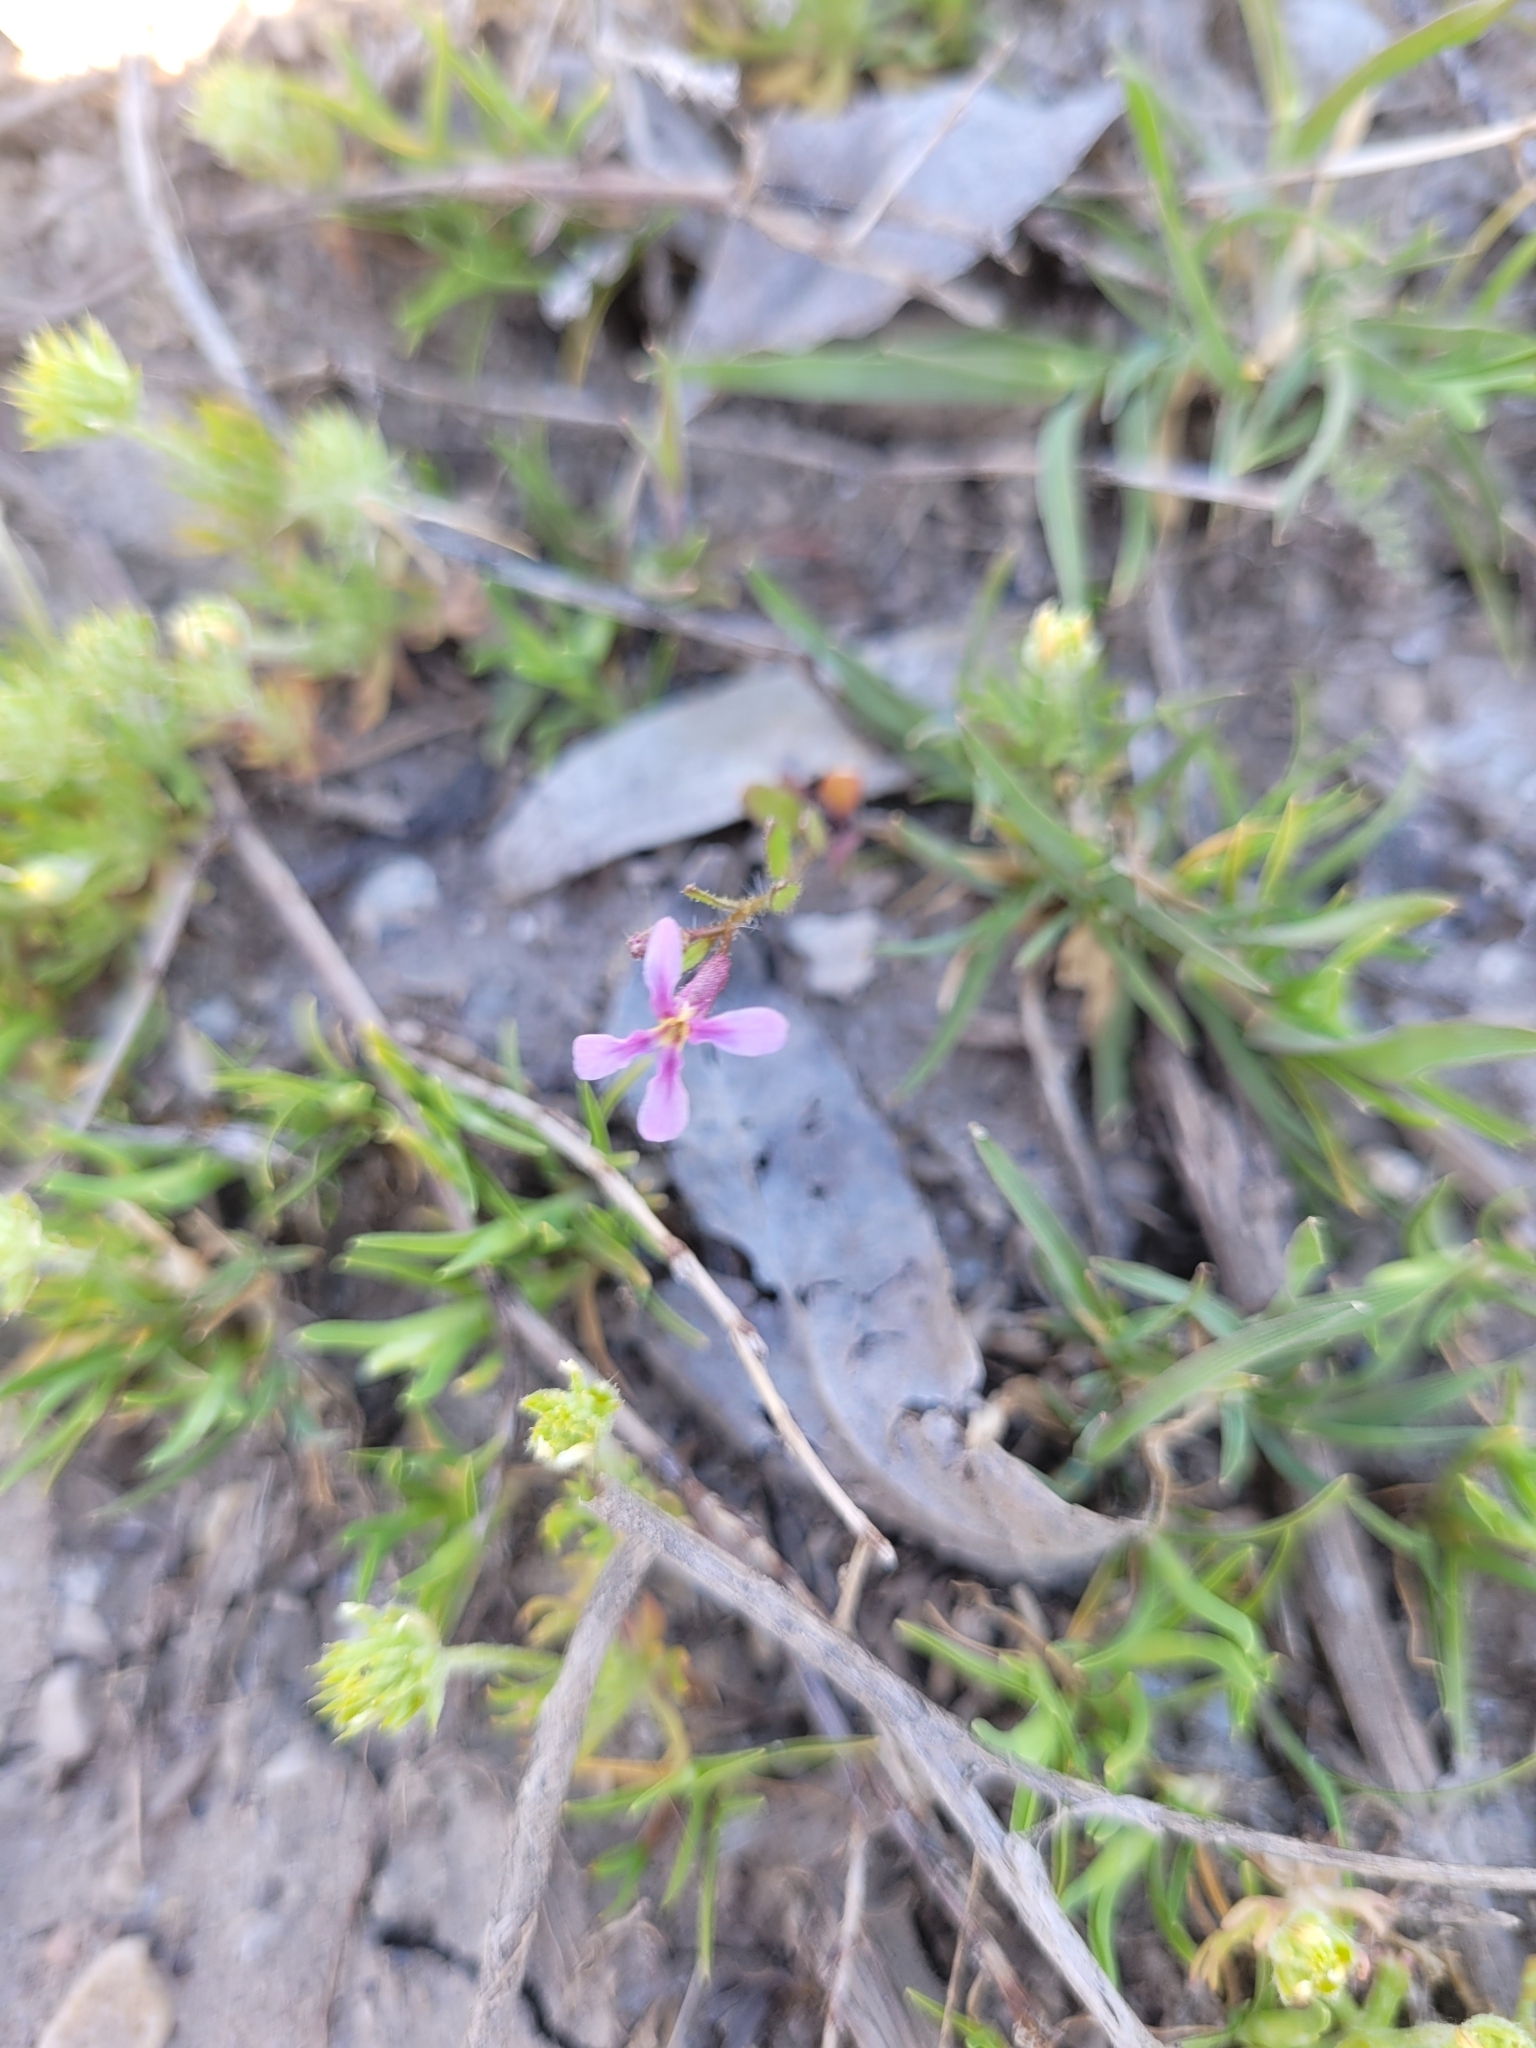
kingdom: Plantae
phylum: Tracheophyta
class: Magnoliopsida
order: Brassicales
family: Brassicaceae
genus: Chorispora
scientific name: Chorispora tenella
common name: Crossflower
